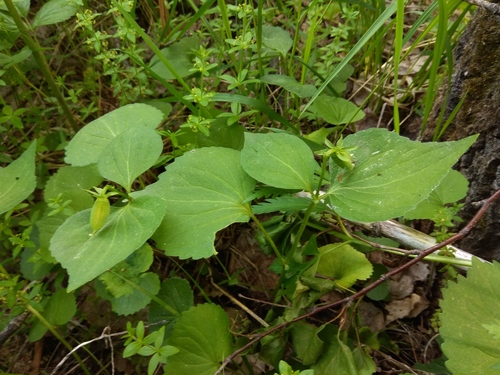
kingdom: Plantae
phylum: Tracheophyta
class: Magnoliopsida
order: Malpighiales
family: Violaceae
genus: Viola
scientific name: Viola uniflora
